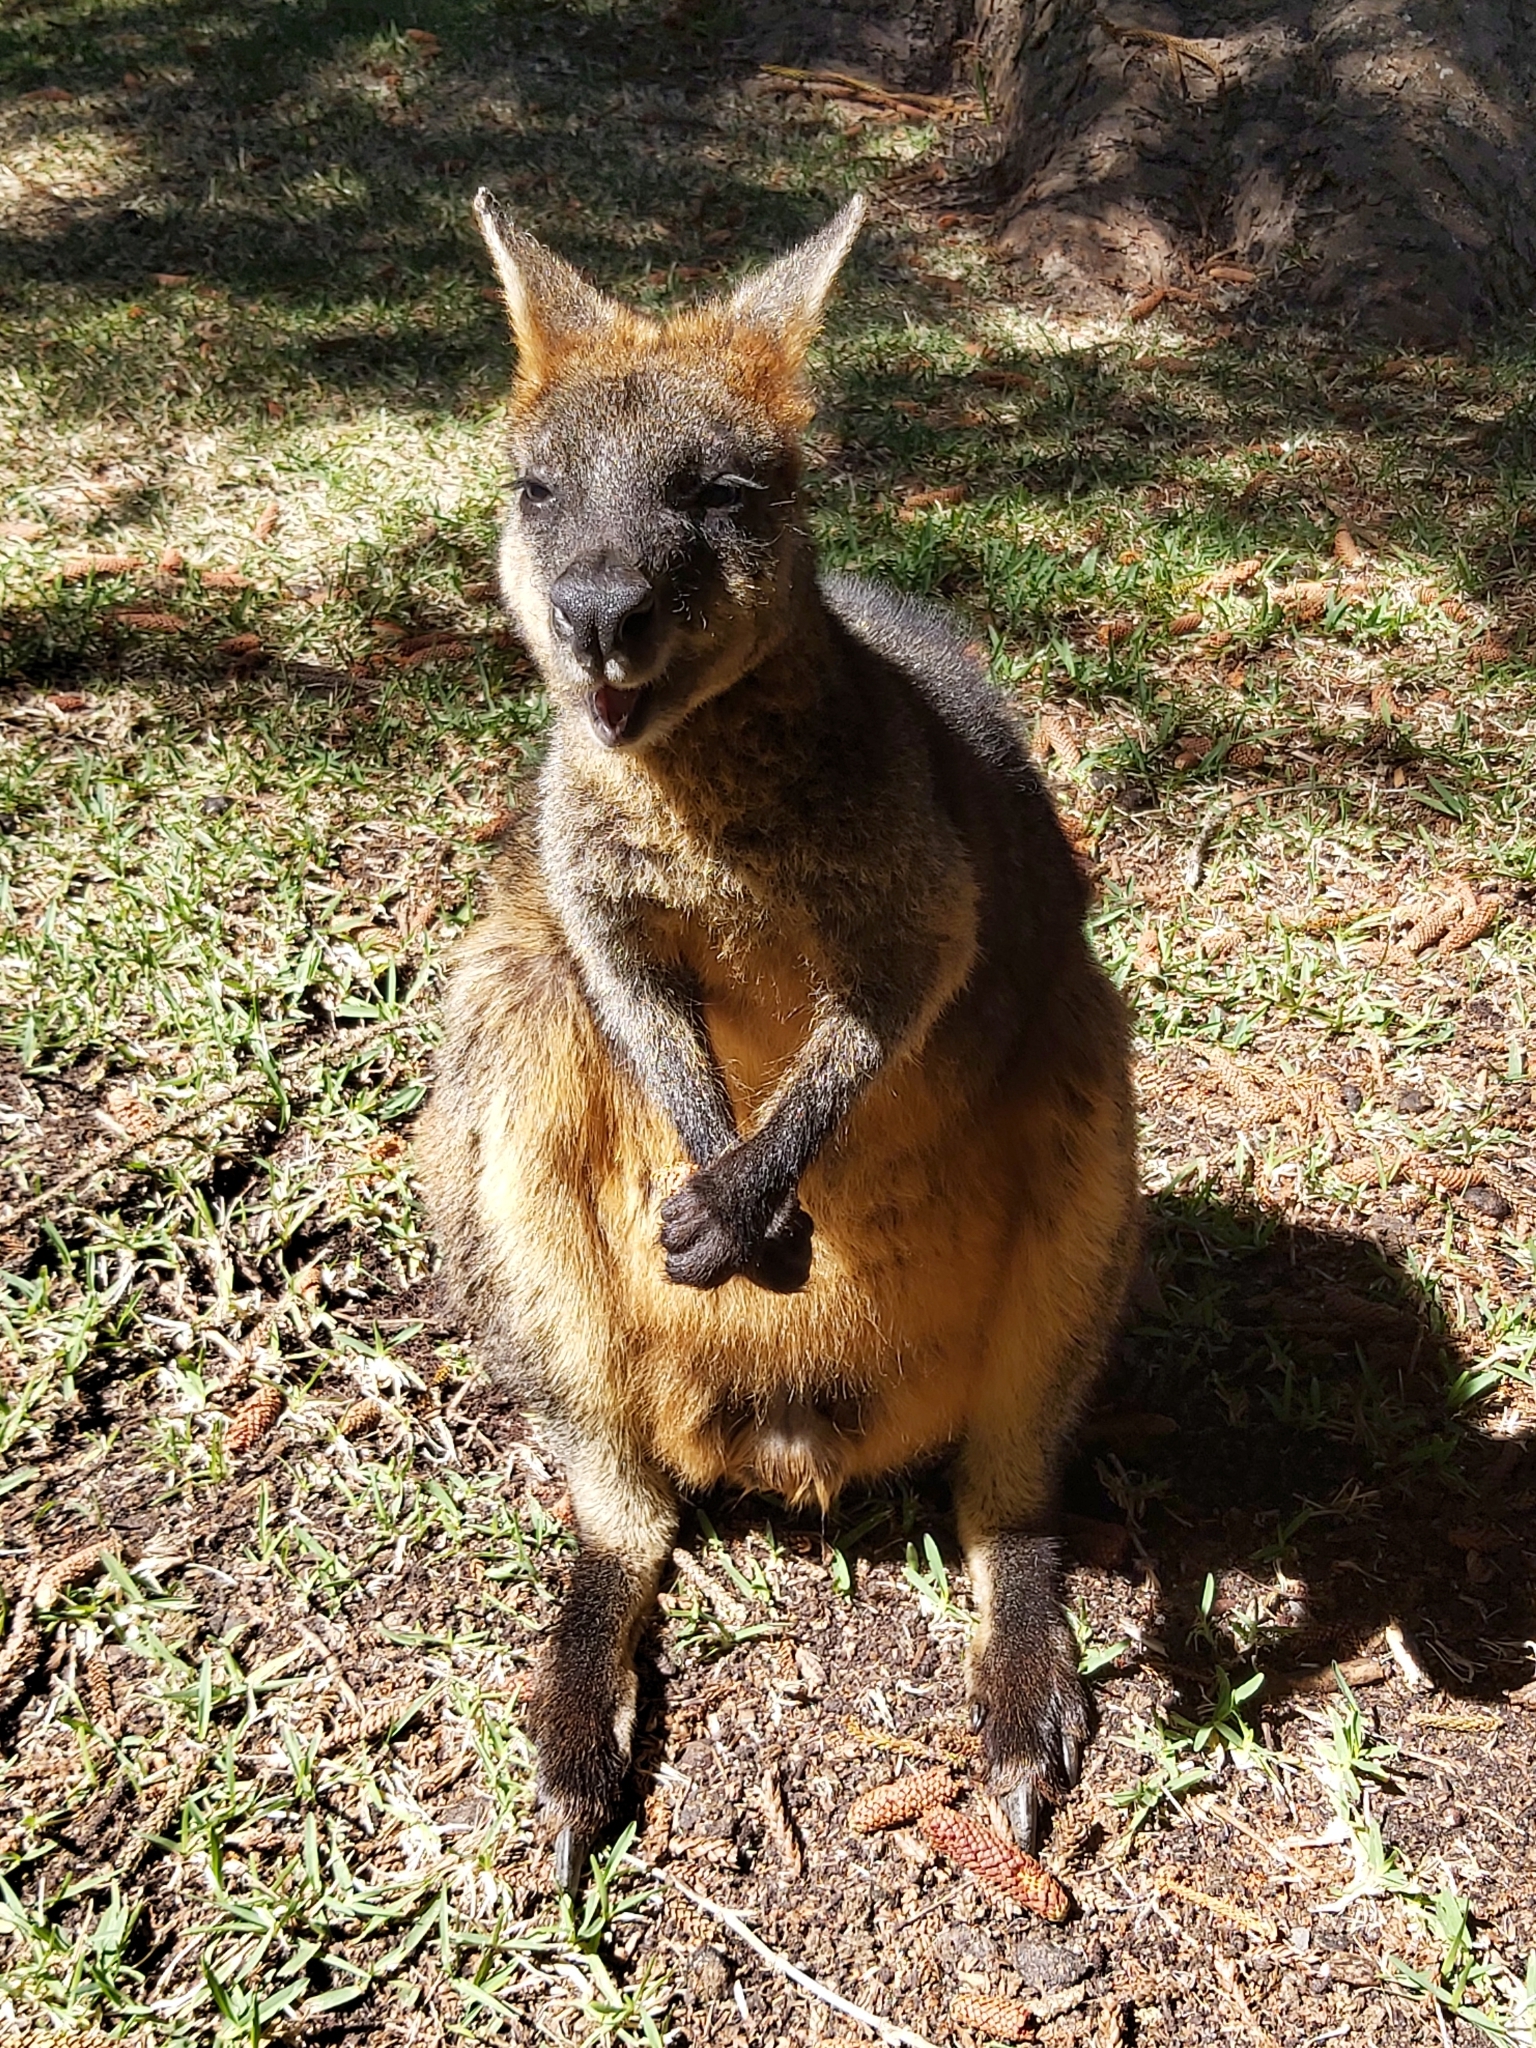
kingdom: Animalia
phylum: Chordata
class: Mammalia
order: Diprotodontia
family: Macropodidae
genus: Wallabia
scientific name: Wallabia bicolor
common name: Swamp wallaby
